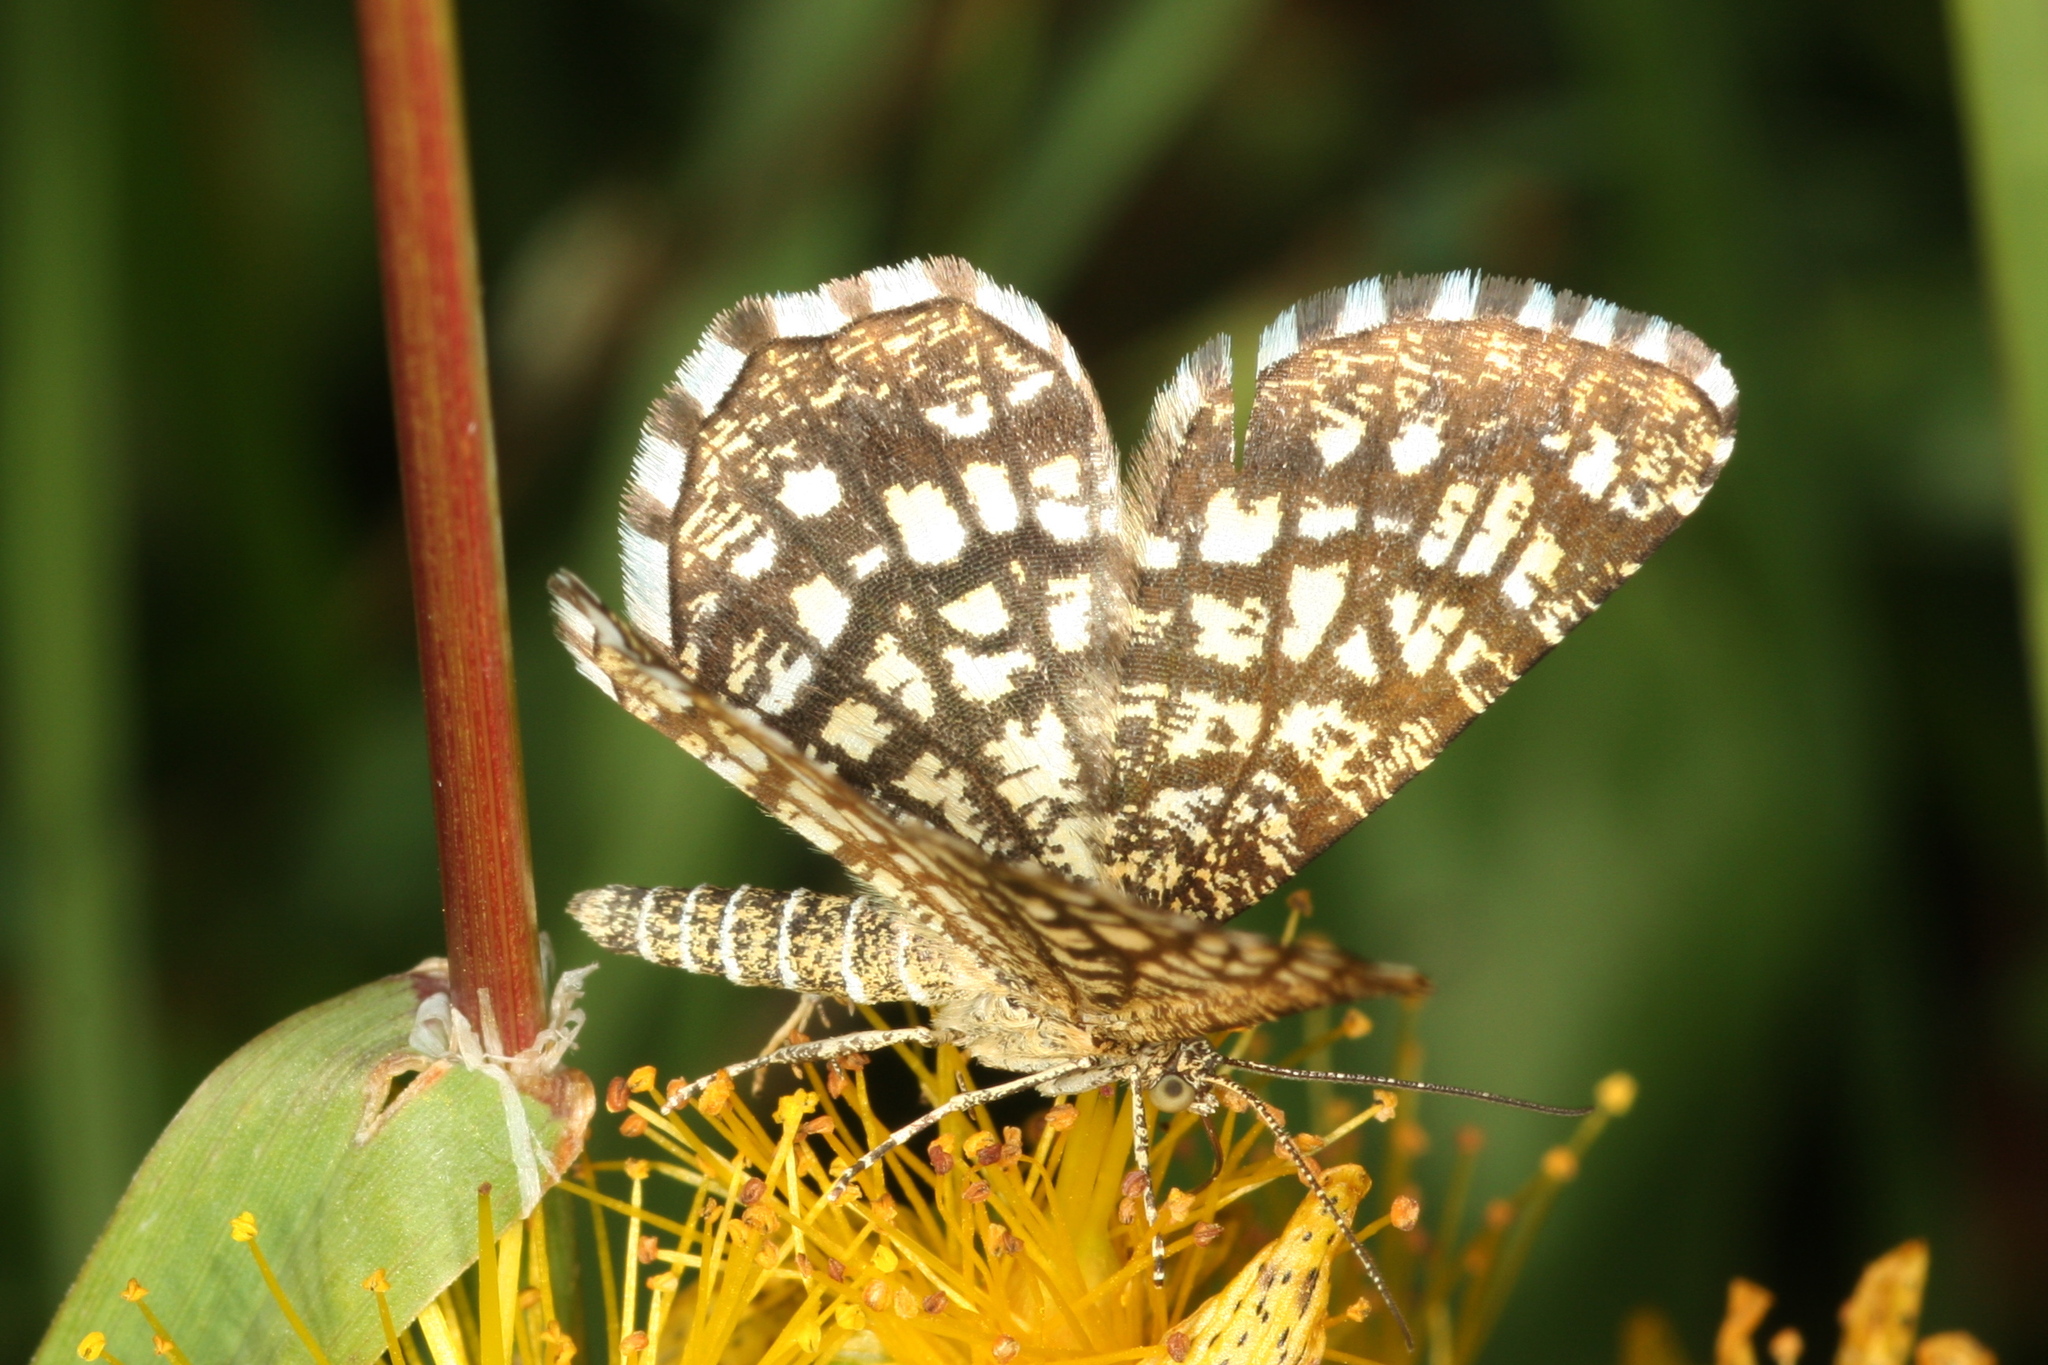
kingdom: Animalia
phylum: Arthropoda
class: Insecta
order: Lepidoptera
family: Geometridae
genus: Chiasmia
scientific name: Chiasmia clathrata
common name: Latticed heath
